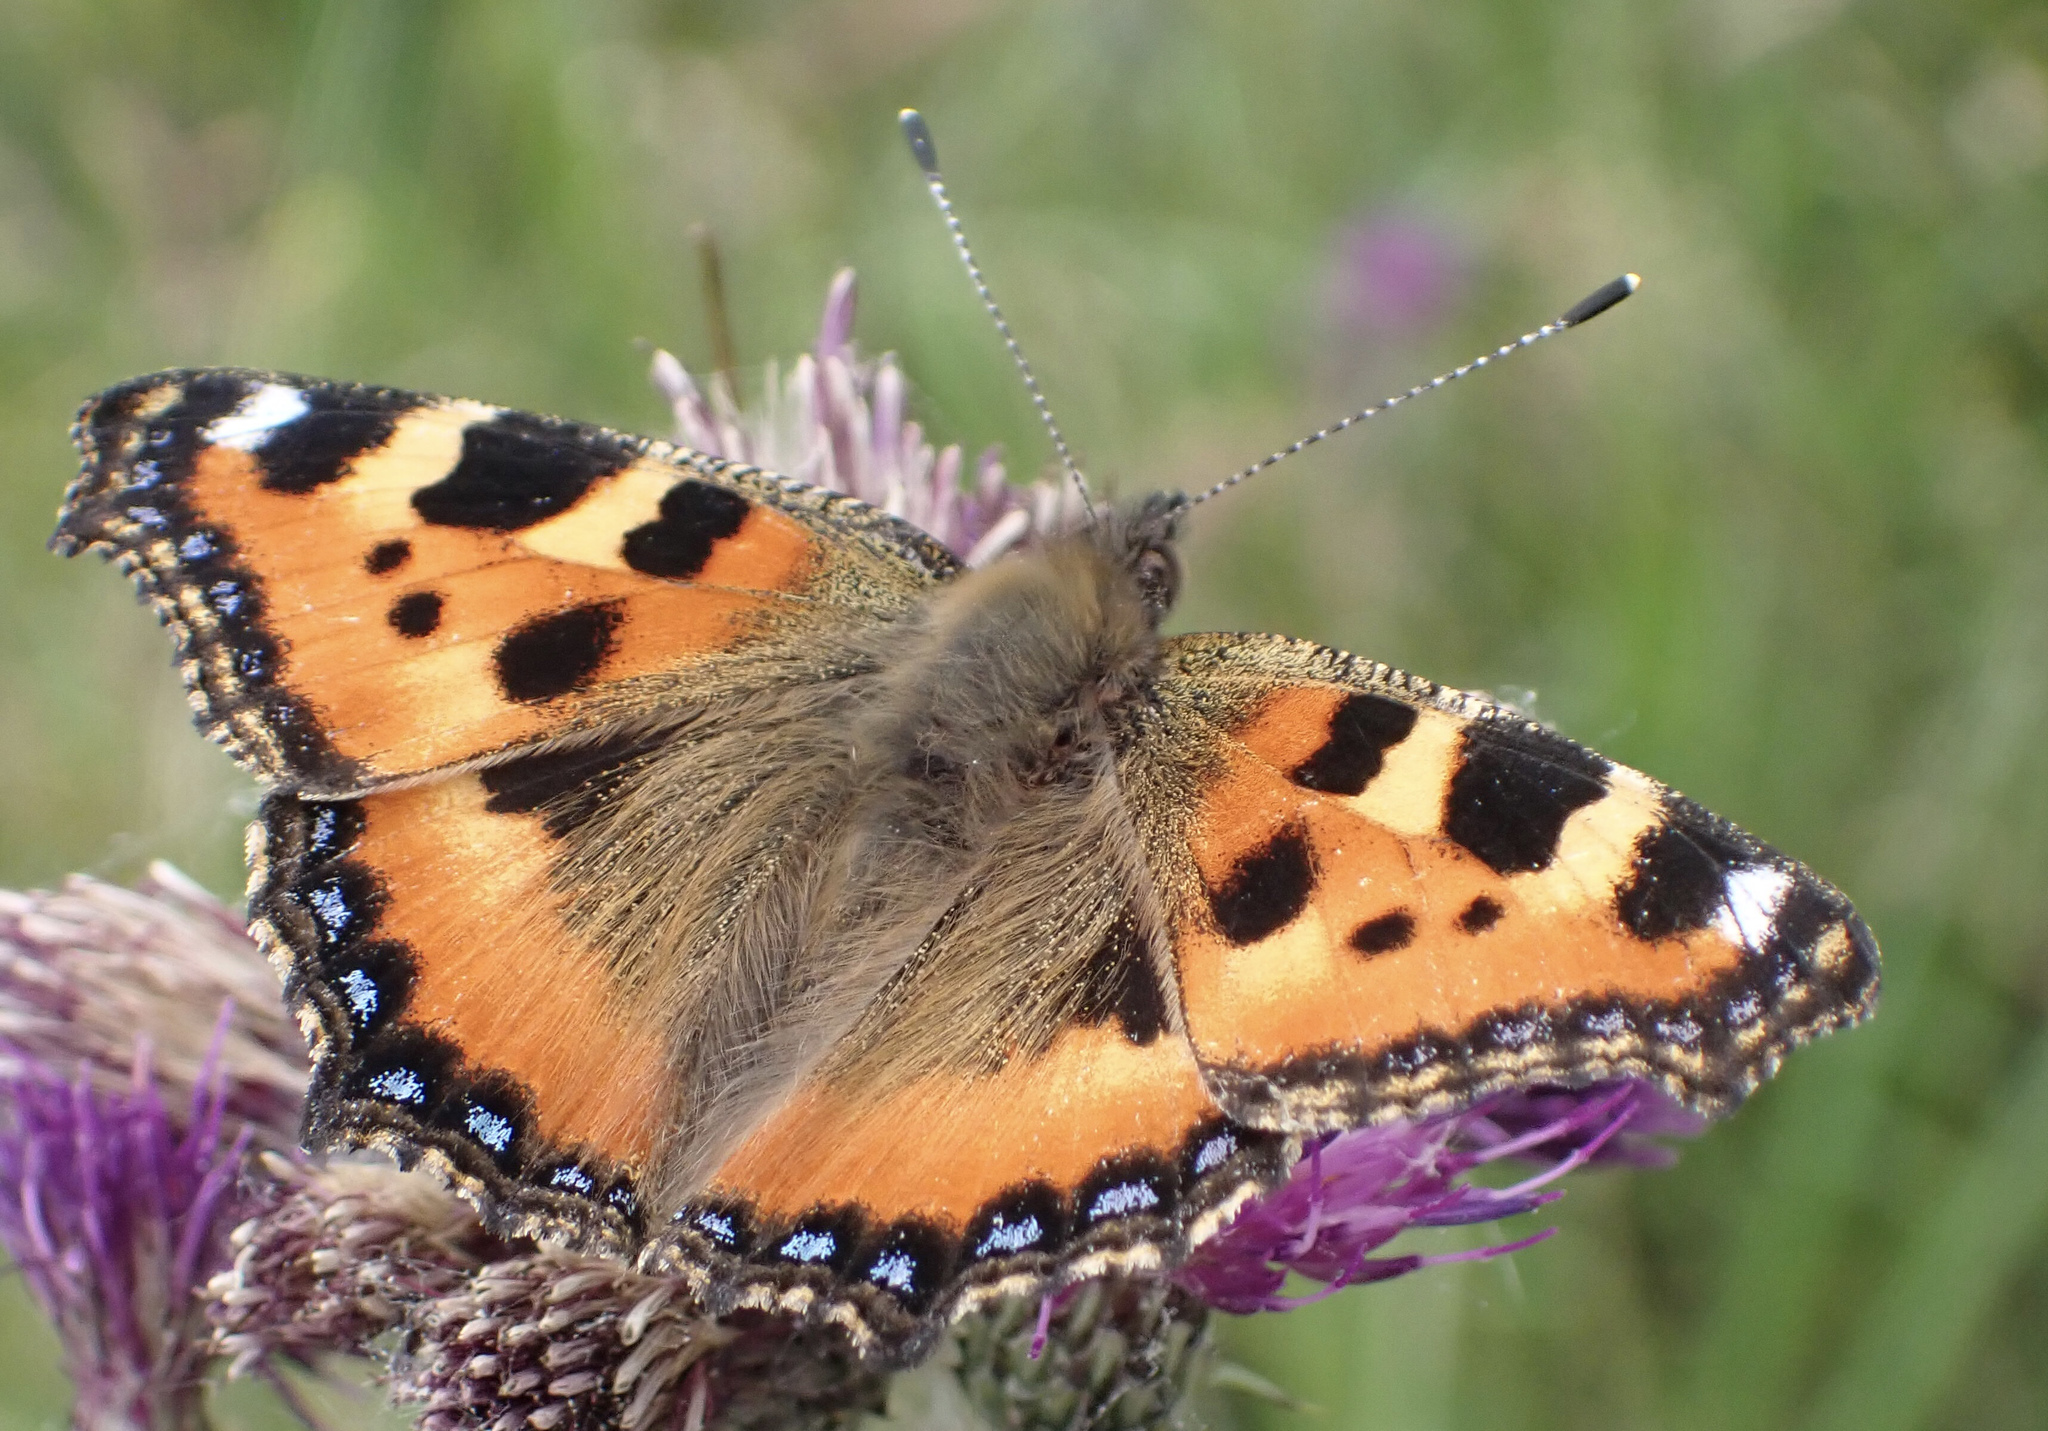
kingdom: Animalia
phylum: Arthropoda
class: Insecta
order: Lepidoptera
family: Nymphalidae
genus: Aglais
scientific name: Aglais urticae
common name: Small tortoiseshell
